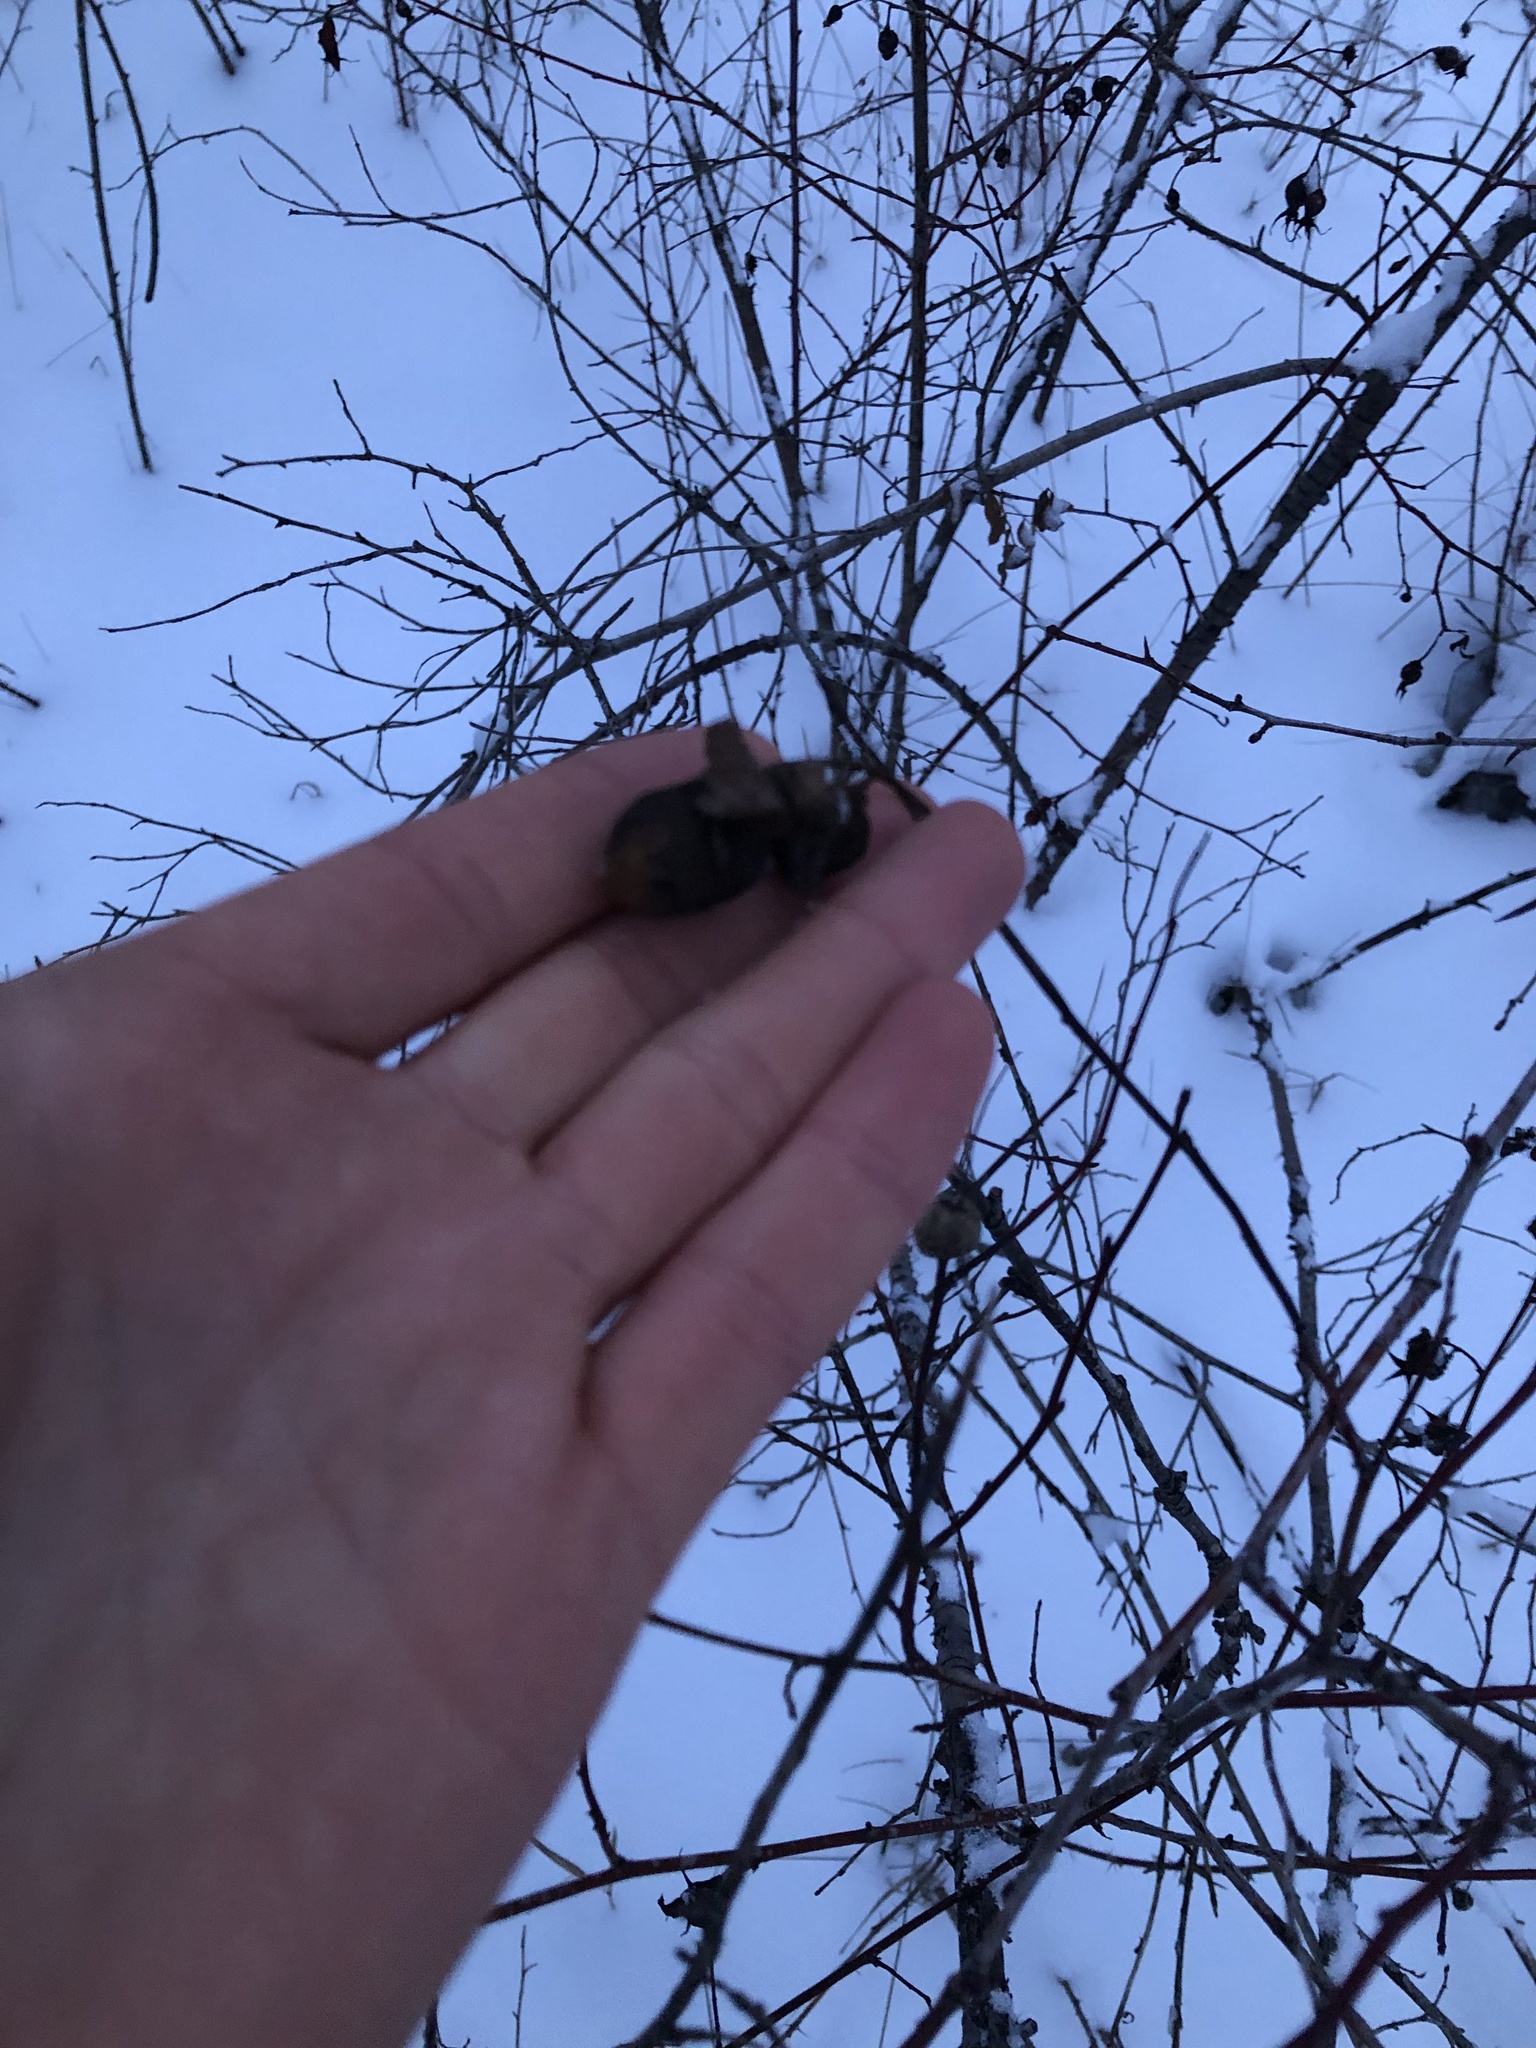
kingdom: Animalia
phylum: Arthropoda
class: Insecta
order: Hymenoptera
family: Cynipidae
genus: Diplolepis
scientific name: Diplolepis variabilis
